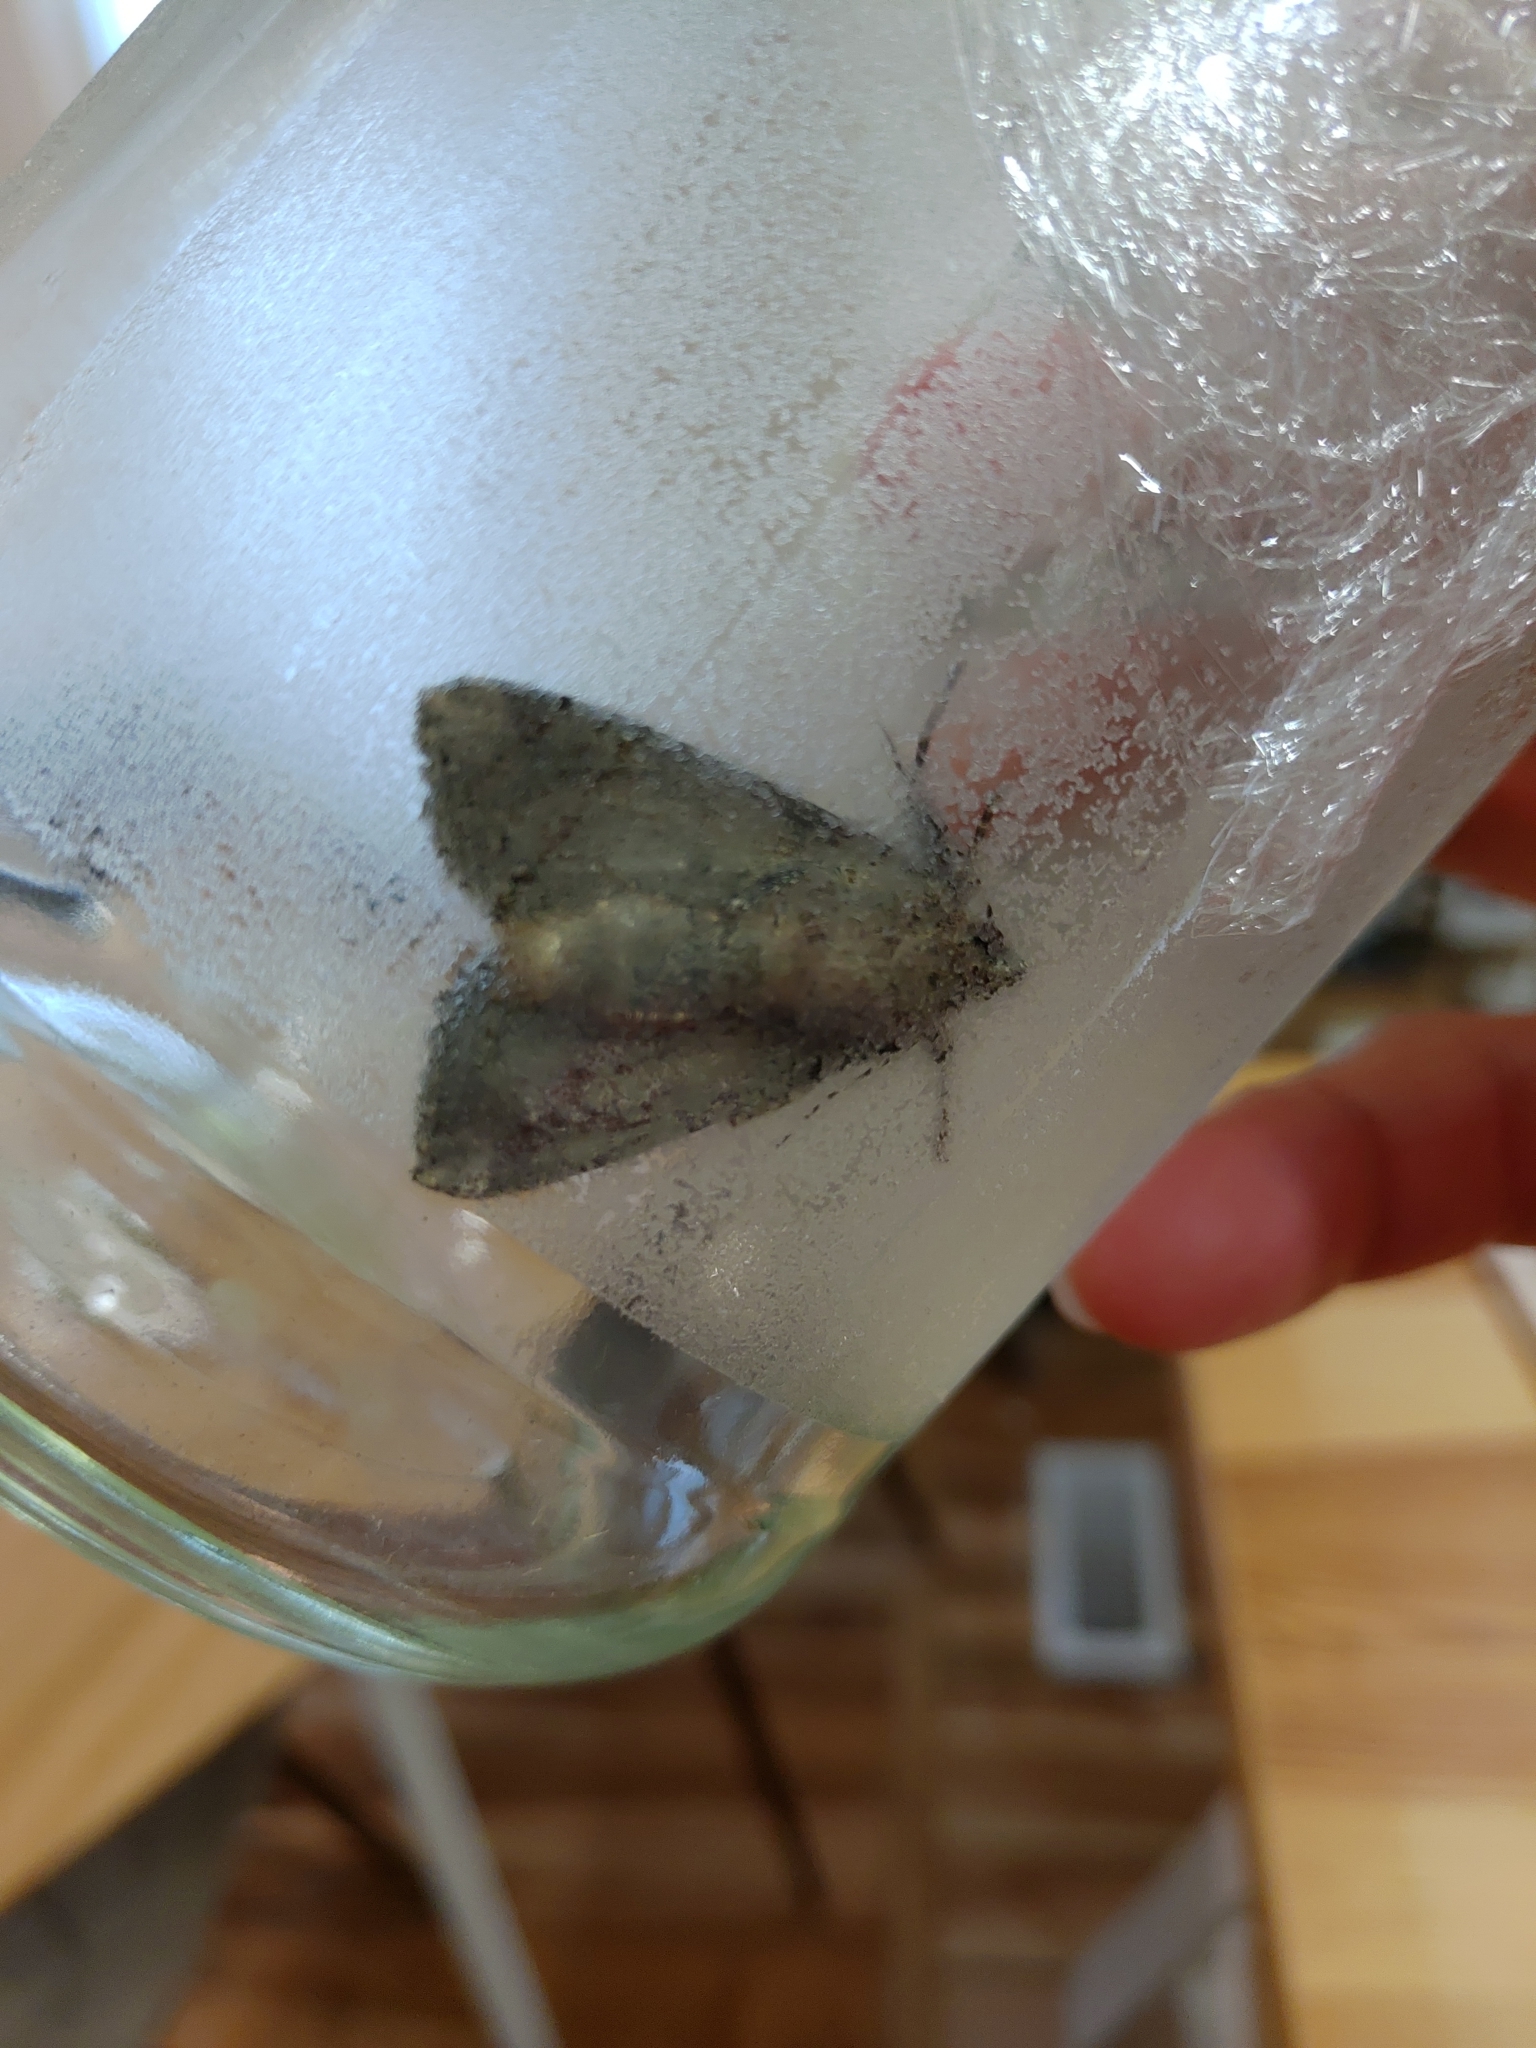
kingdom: Animalia
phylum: Arthropoda
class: Insecta
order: Lepidoptera
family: Noctuidae
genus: Apamea
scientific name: Apamea amputatrix
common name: Yellow-headed cutworm moth
